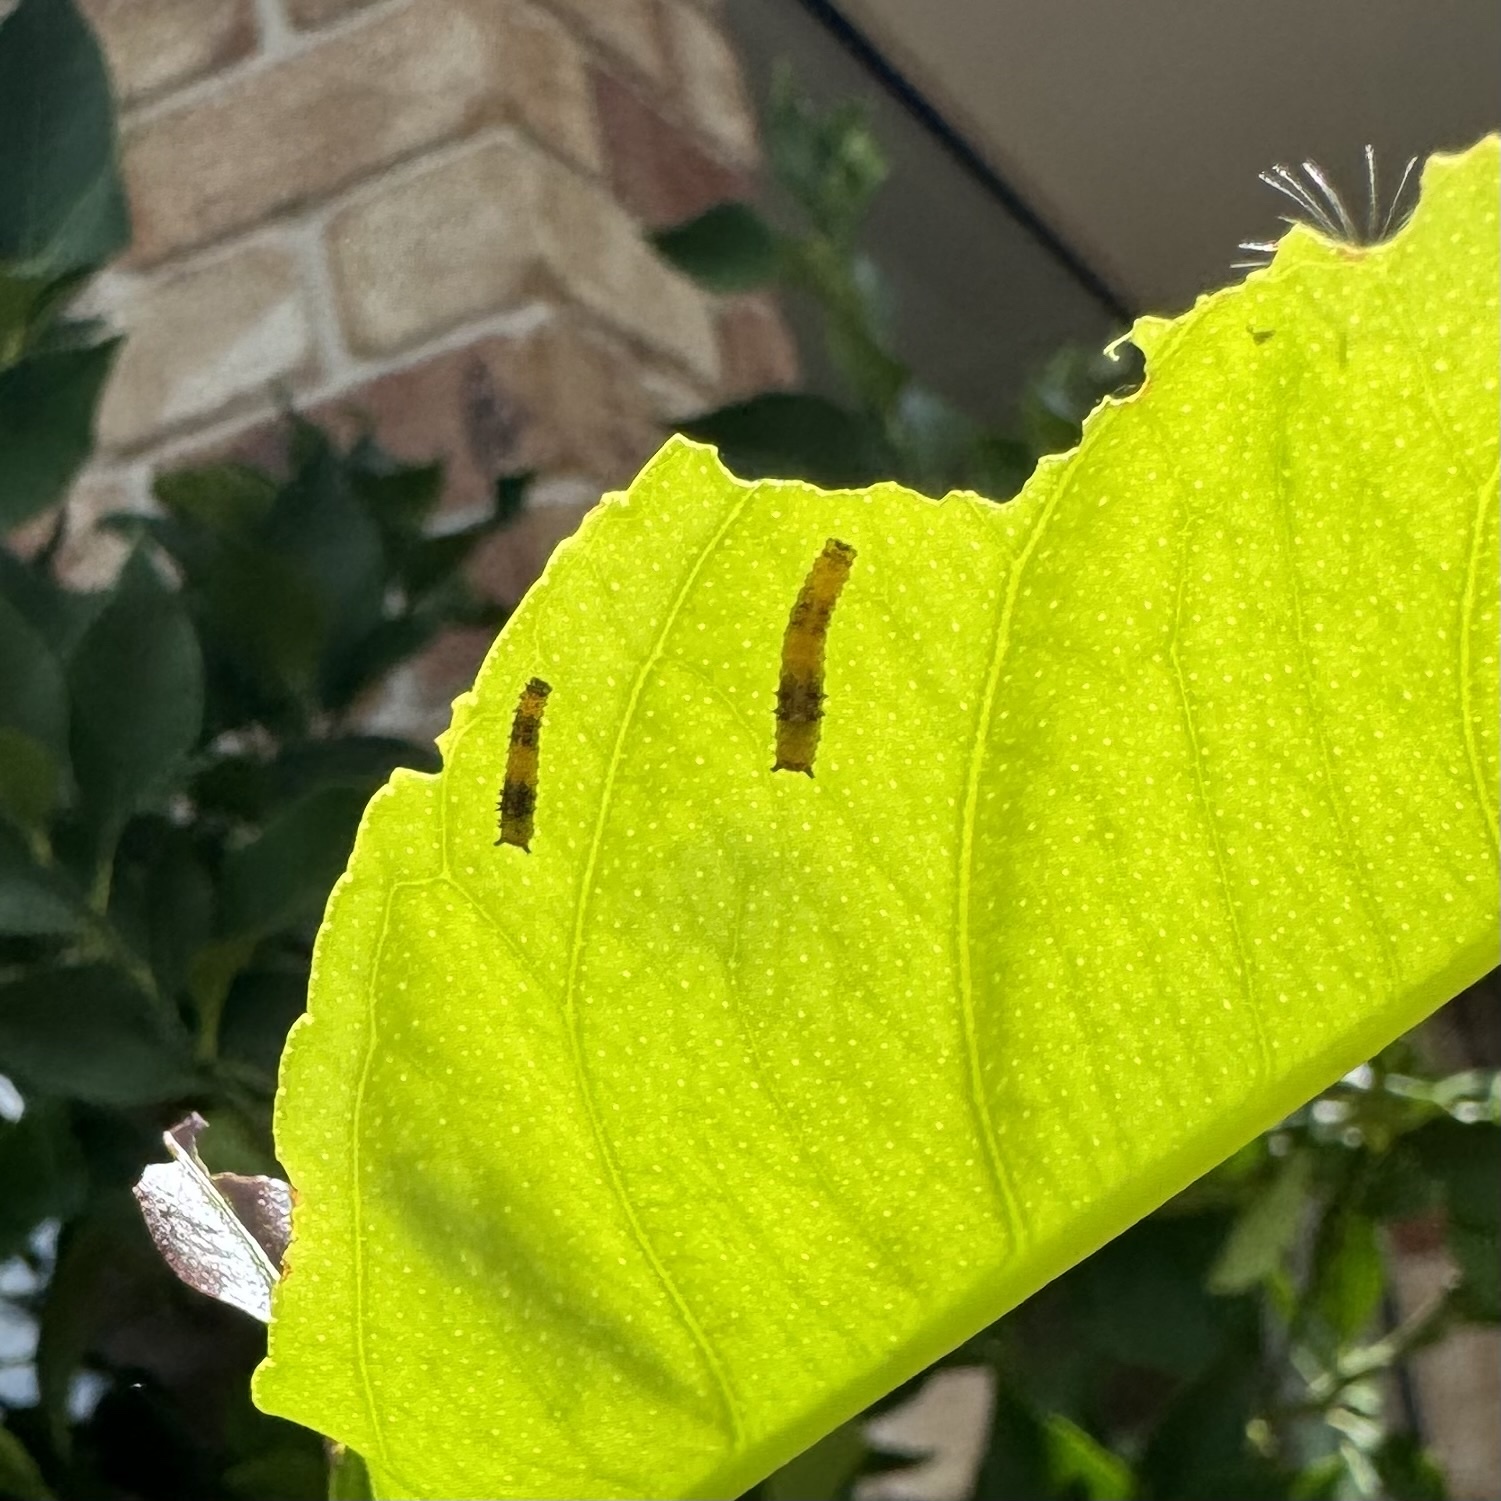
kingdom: Animalia
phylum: Arthropoda
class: Insecta
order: Lepidoptera
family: Papilionidae
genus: Papilio
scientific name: Papilio anactus
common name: Dingy swallowtail
